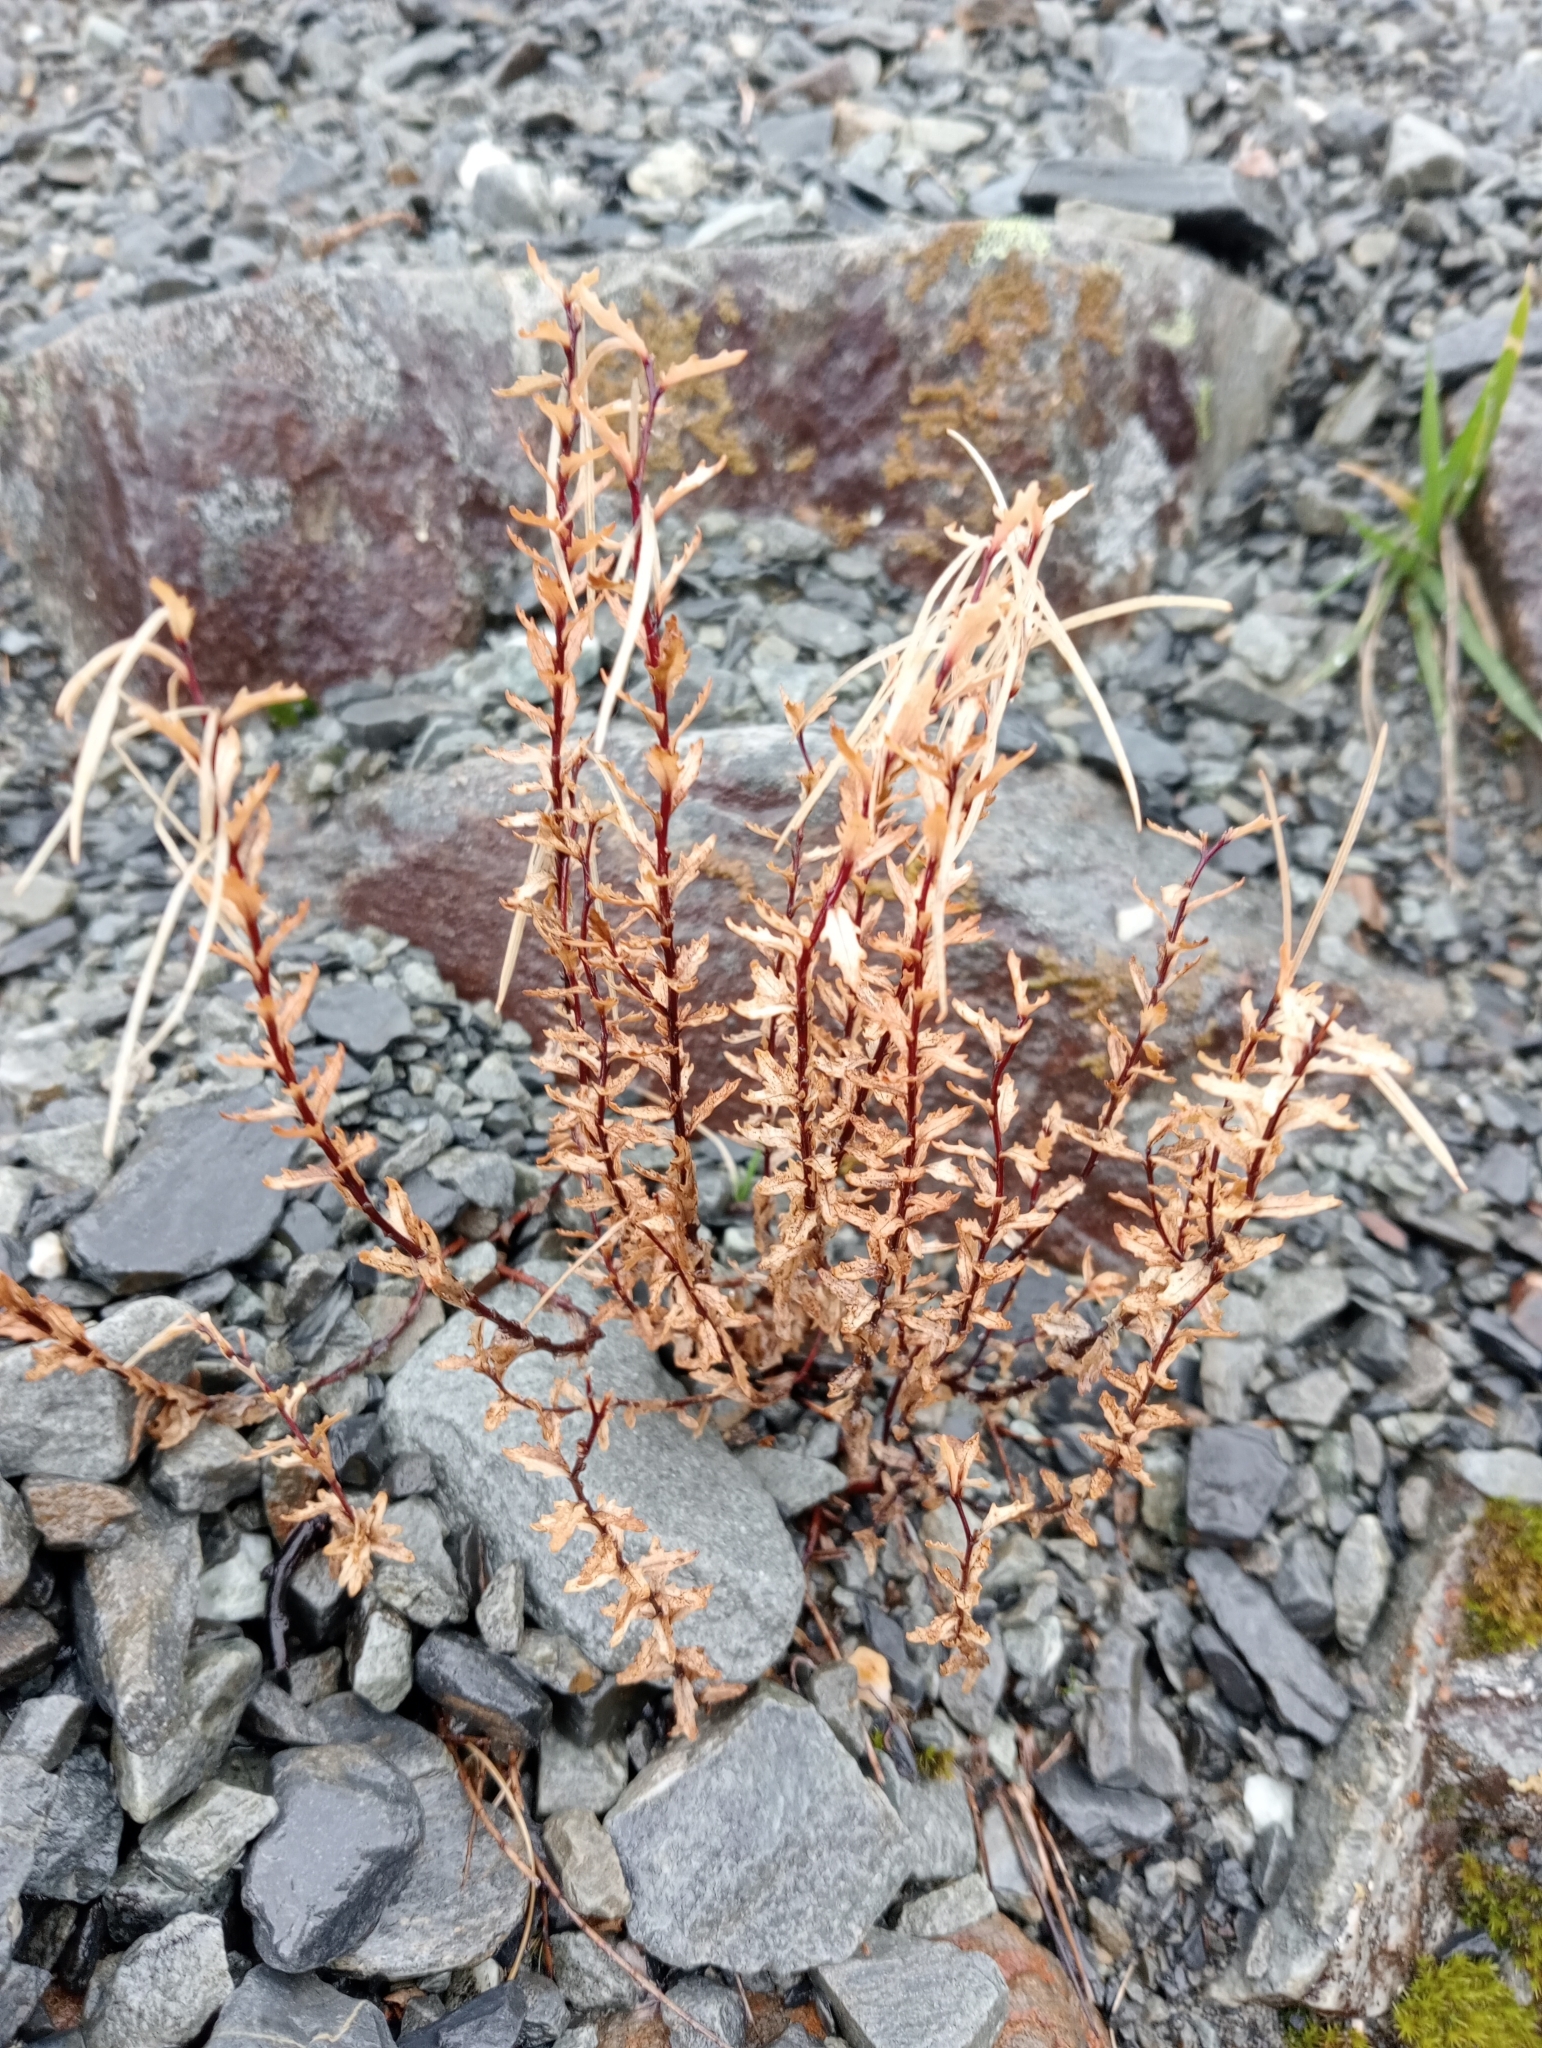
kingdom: Plantae
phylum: Tracheophyta
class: Magnoliopsida
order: Myrtales
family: Onagraceae
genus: Epilobium
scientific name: Epilobium melanocaulon
